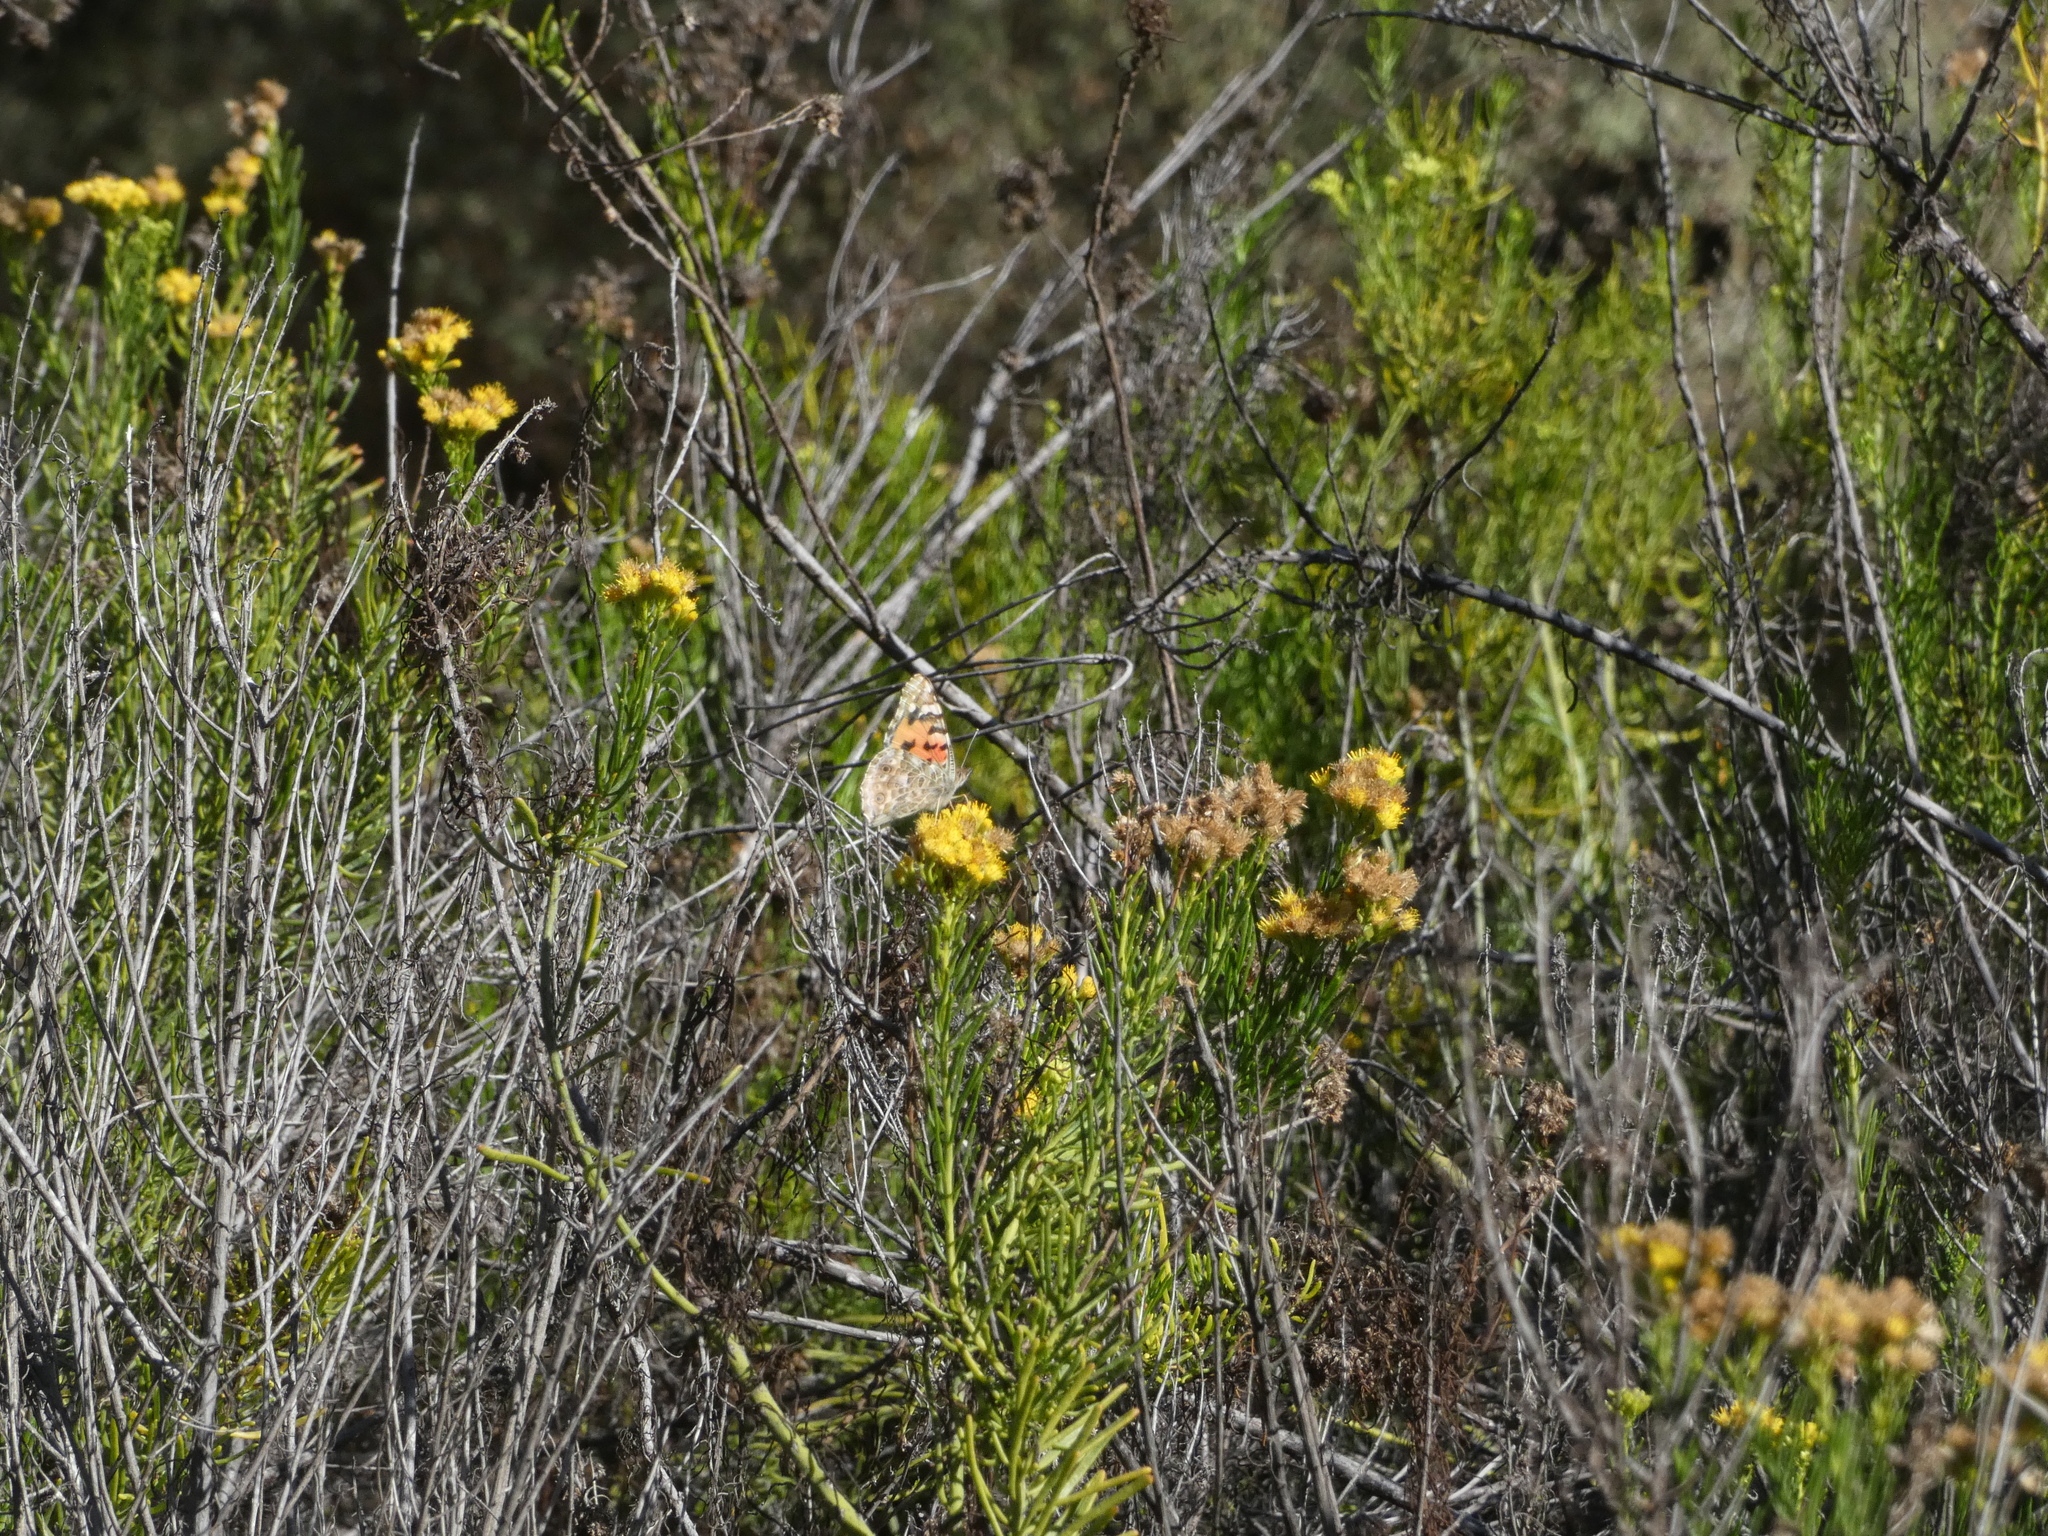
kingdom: Animalia
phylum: Arthropoda
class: Insecta
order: Lepidoptera
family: Nymphalidae
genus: Vanessa
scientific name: Vanessa cardui
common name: Painted lady
